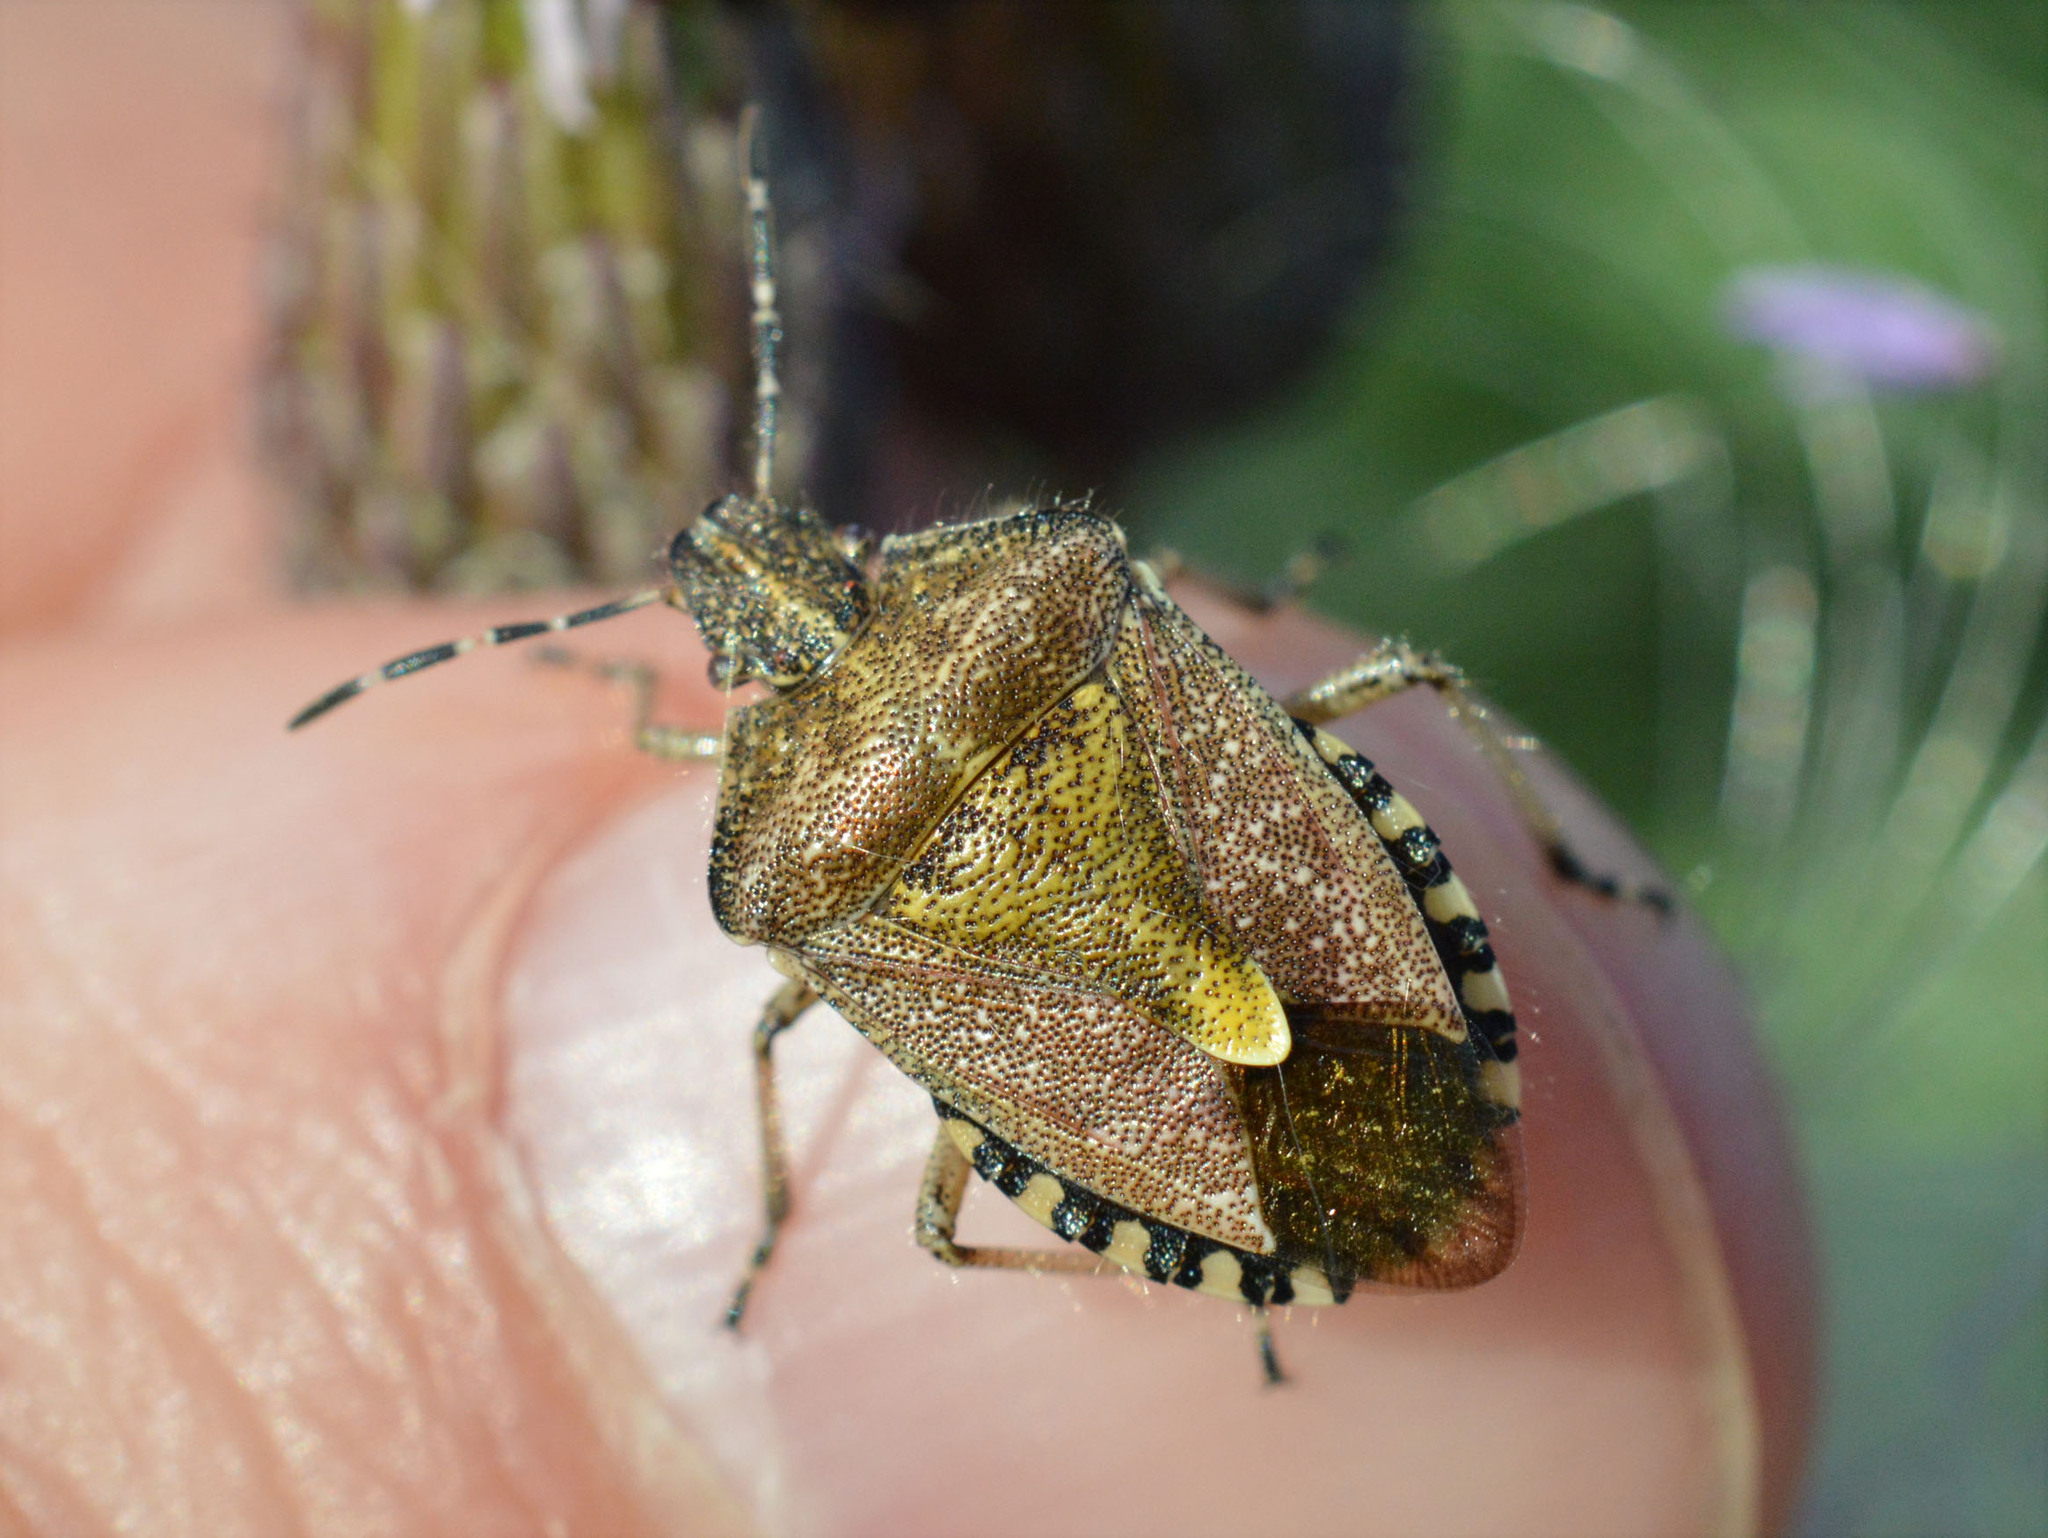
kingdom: Animalia
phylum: Arthropoda
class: Insecta
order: Hemiptera
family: Pentatomidae
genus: Dolycoris
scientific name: Dolycoris baccarum
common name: Sloe bug
